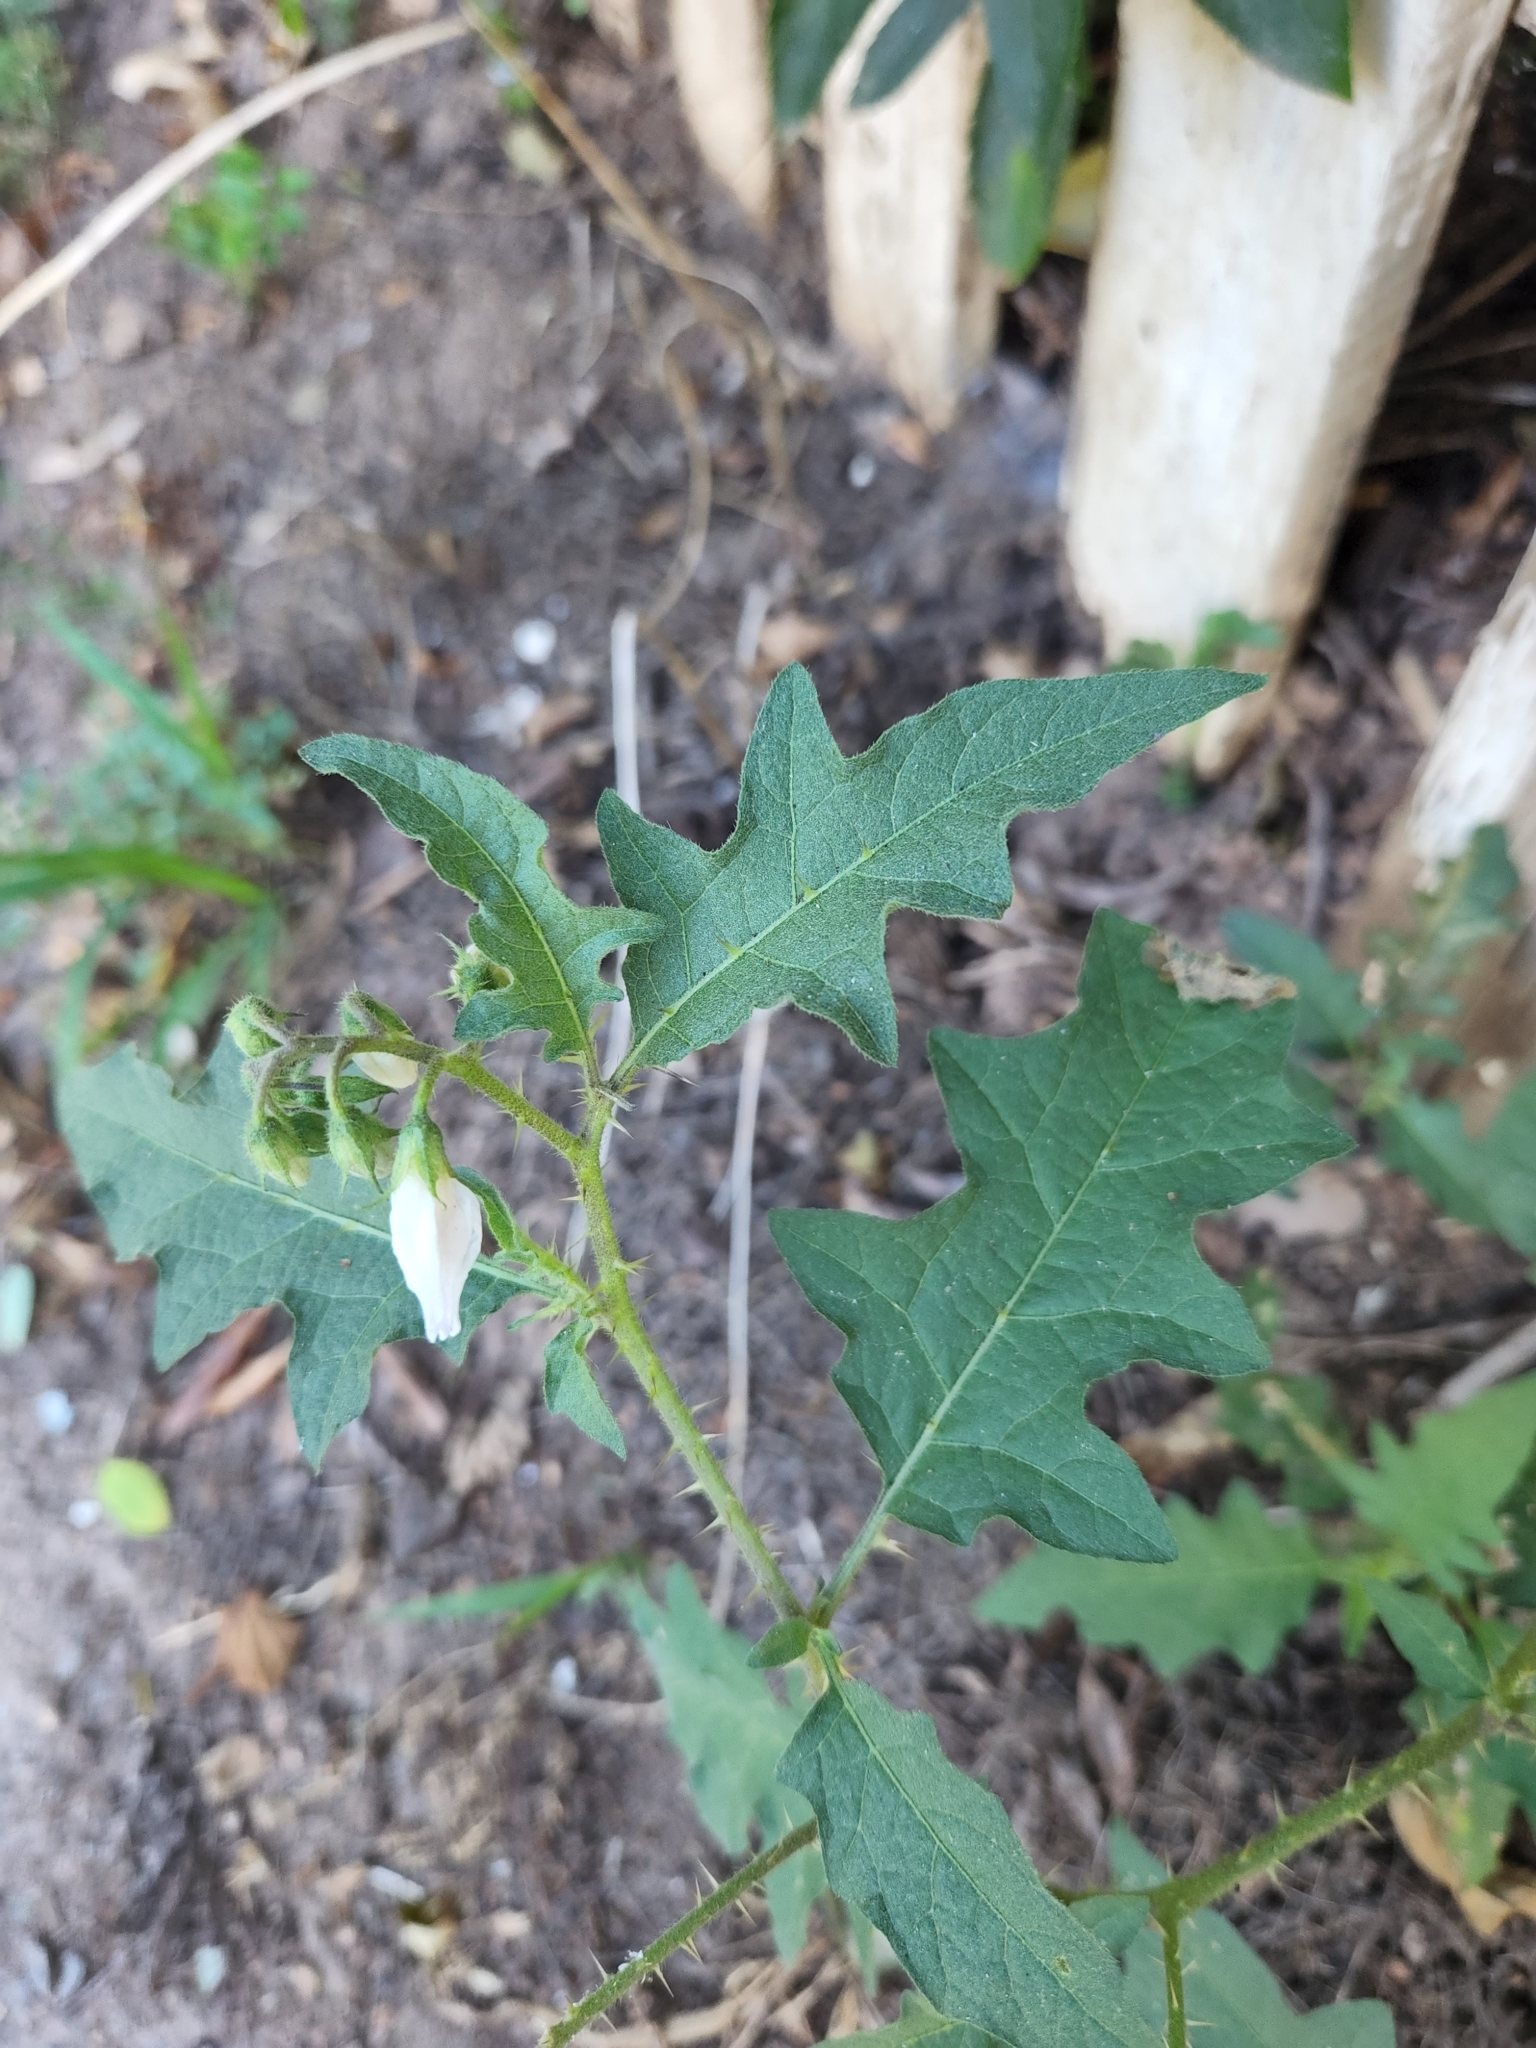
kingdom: Plantae
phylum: Tracheophyta
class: Magnoliopsida
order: Solanales
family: Solanaceae
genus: Solanum
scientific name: Solanum carolinense
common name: Horse-nettle
